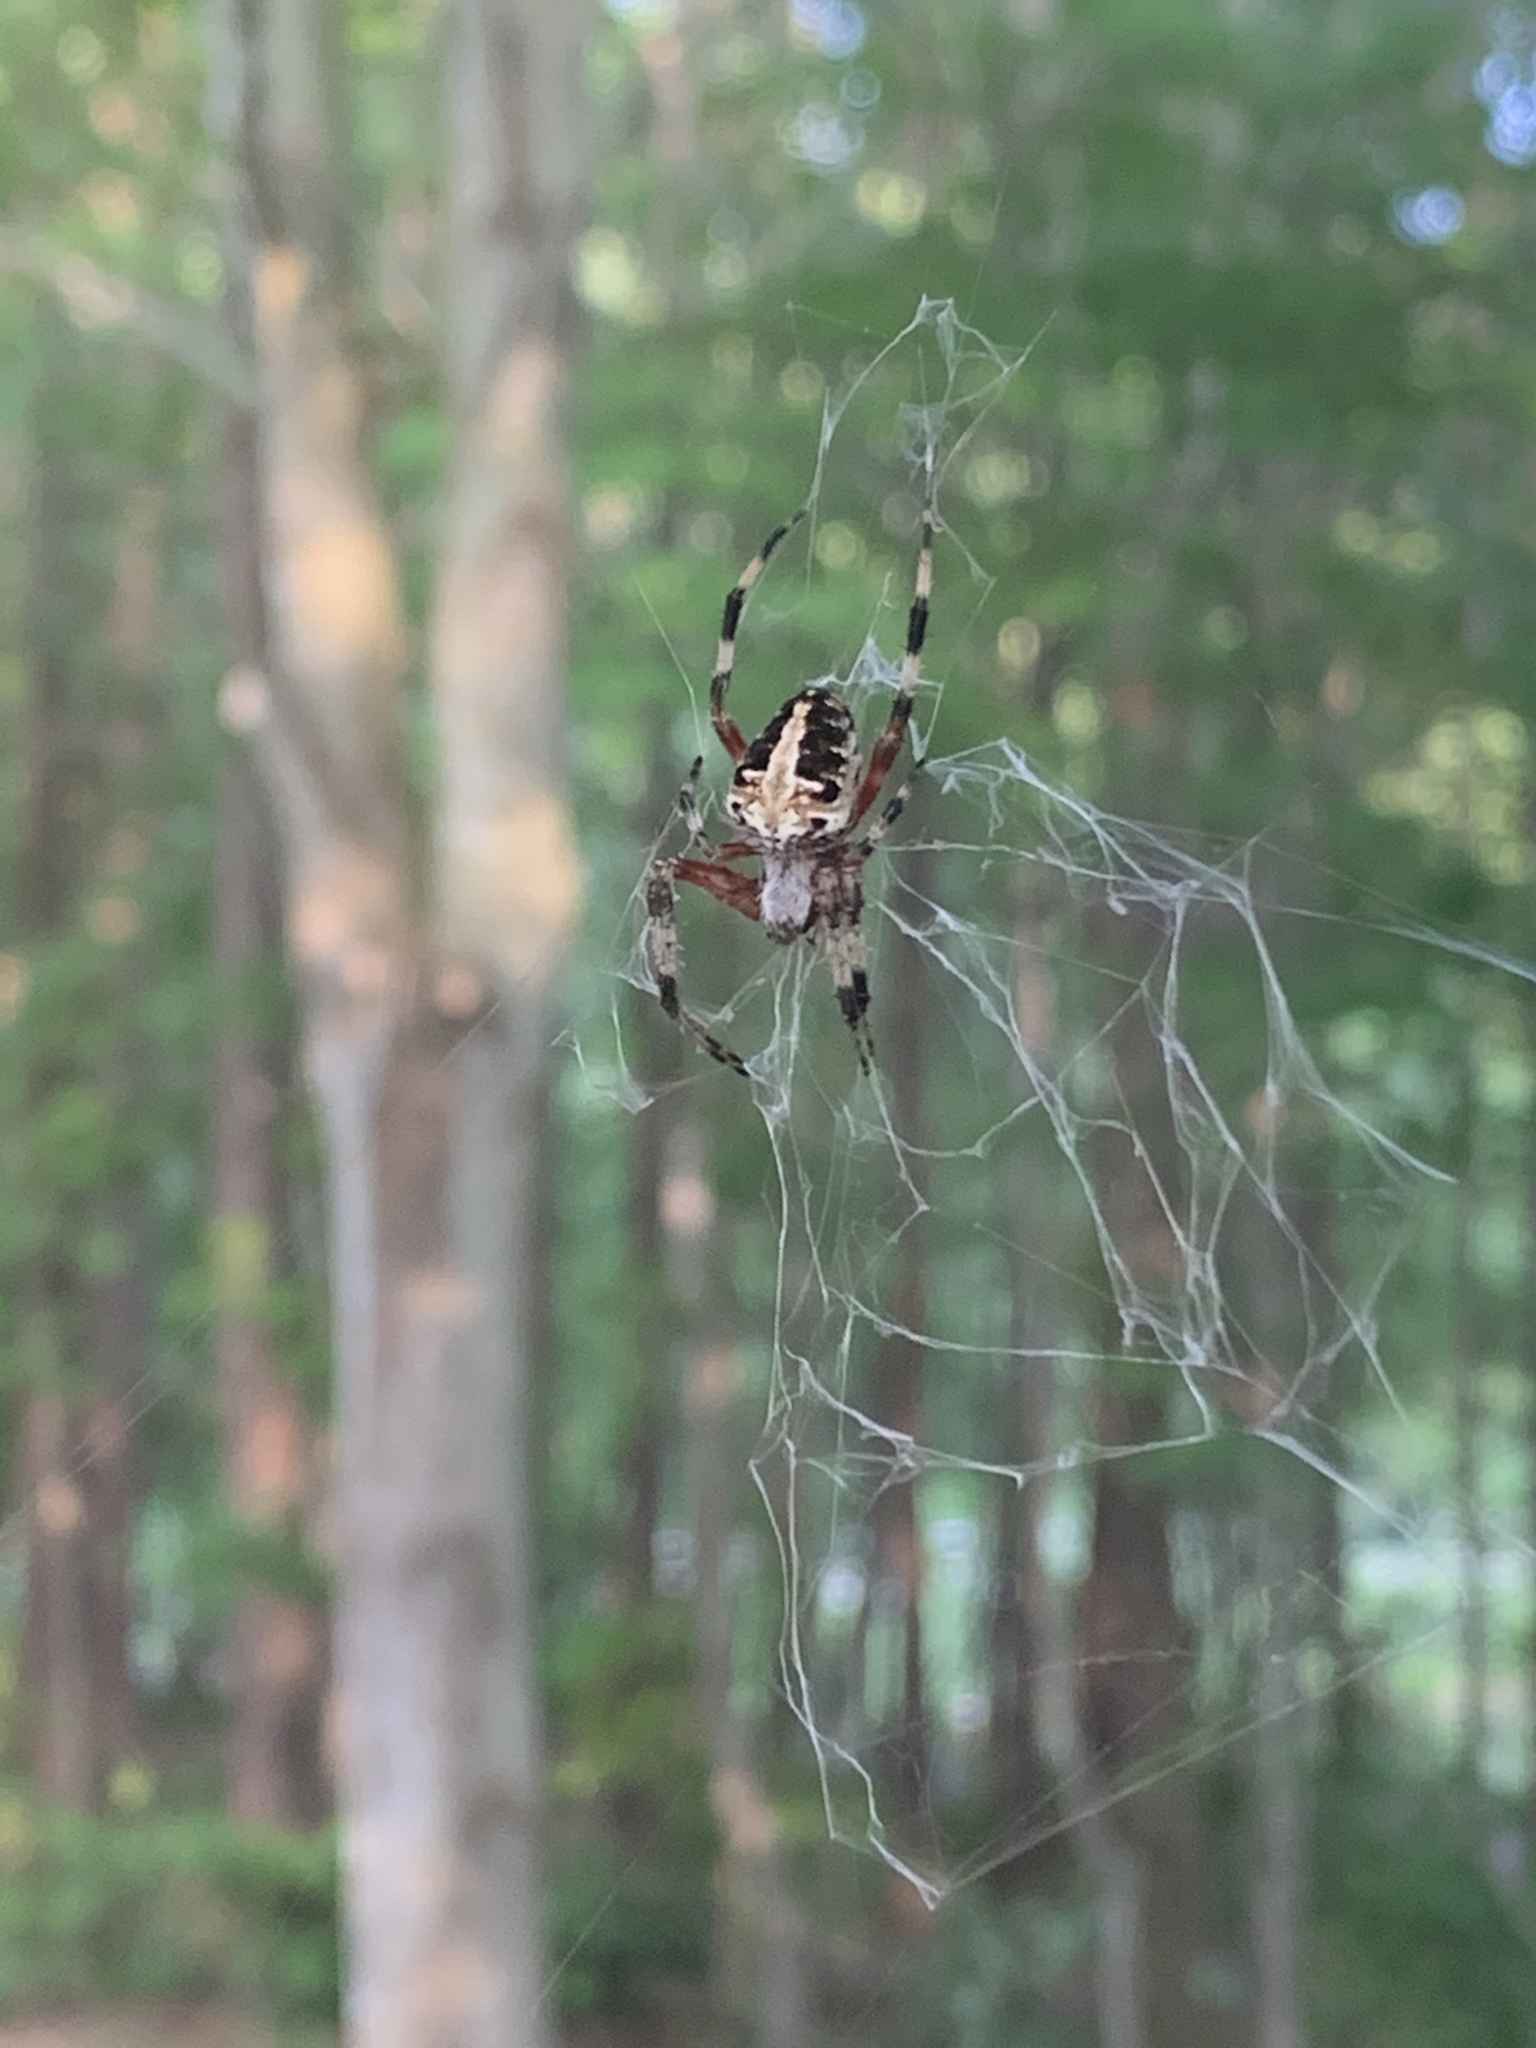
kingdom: Animalia
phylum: Arthropoda
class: Arachnida
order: Araneae
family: Araneidae
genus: Neoscona
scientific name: Neoscona domiciliorum
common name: Red-femured spotted orbweaver
